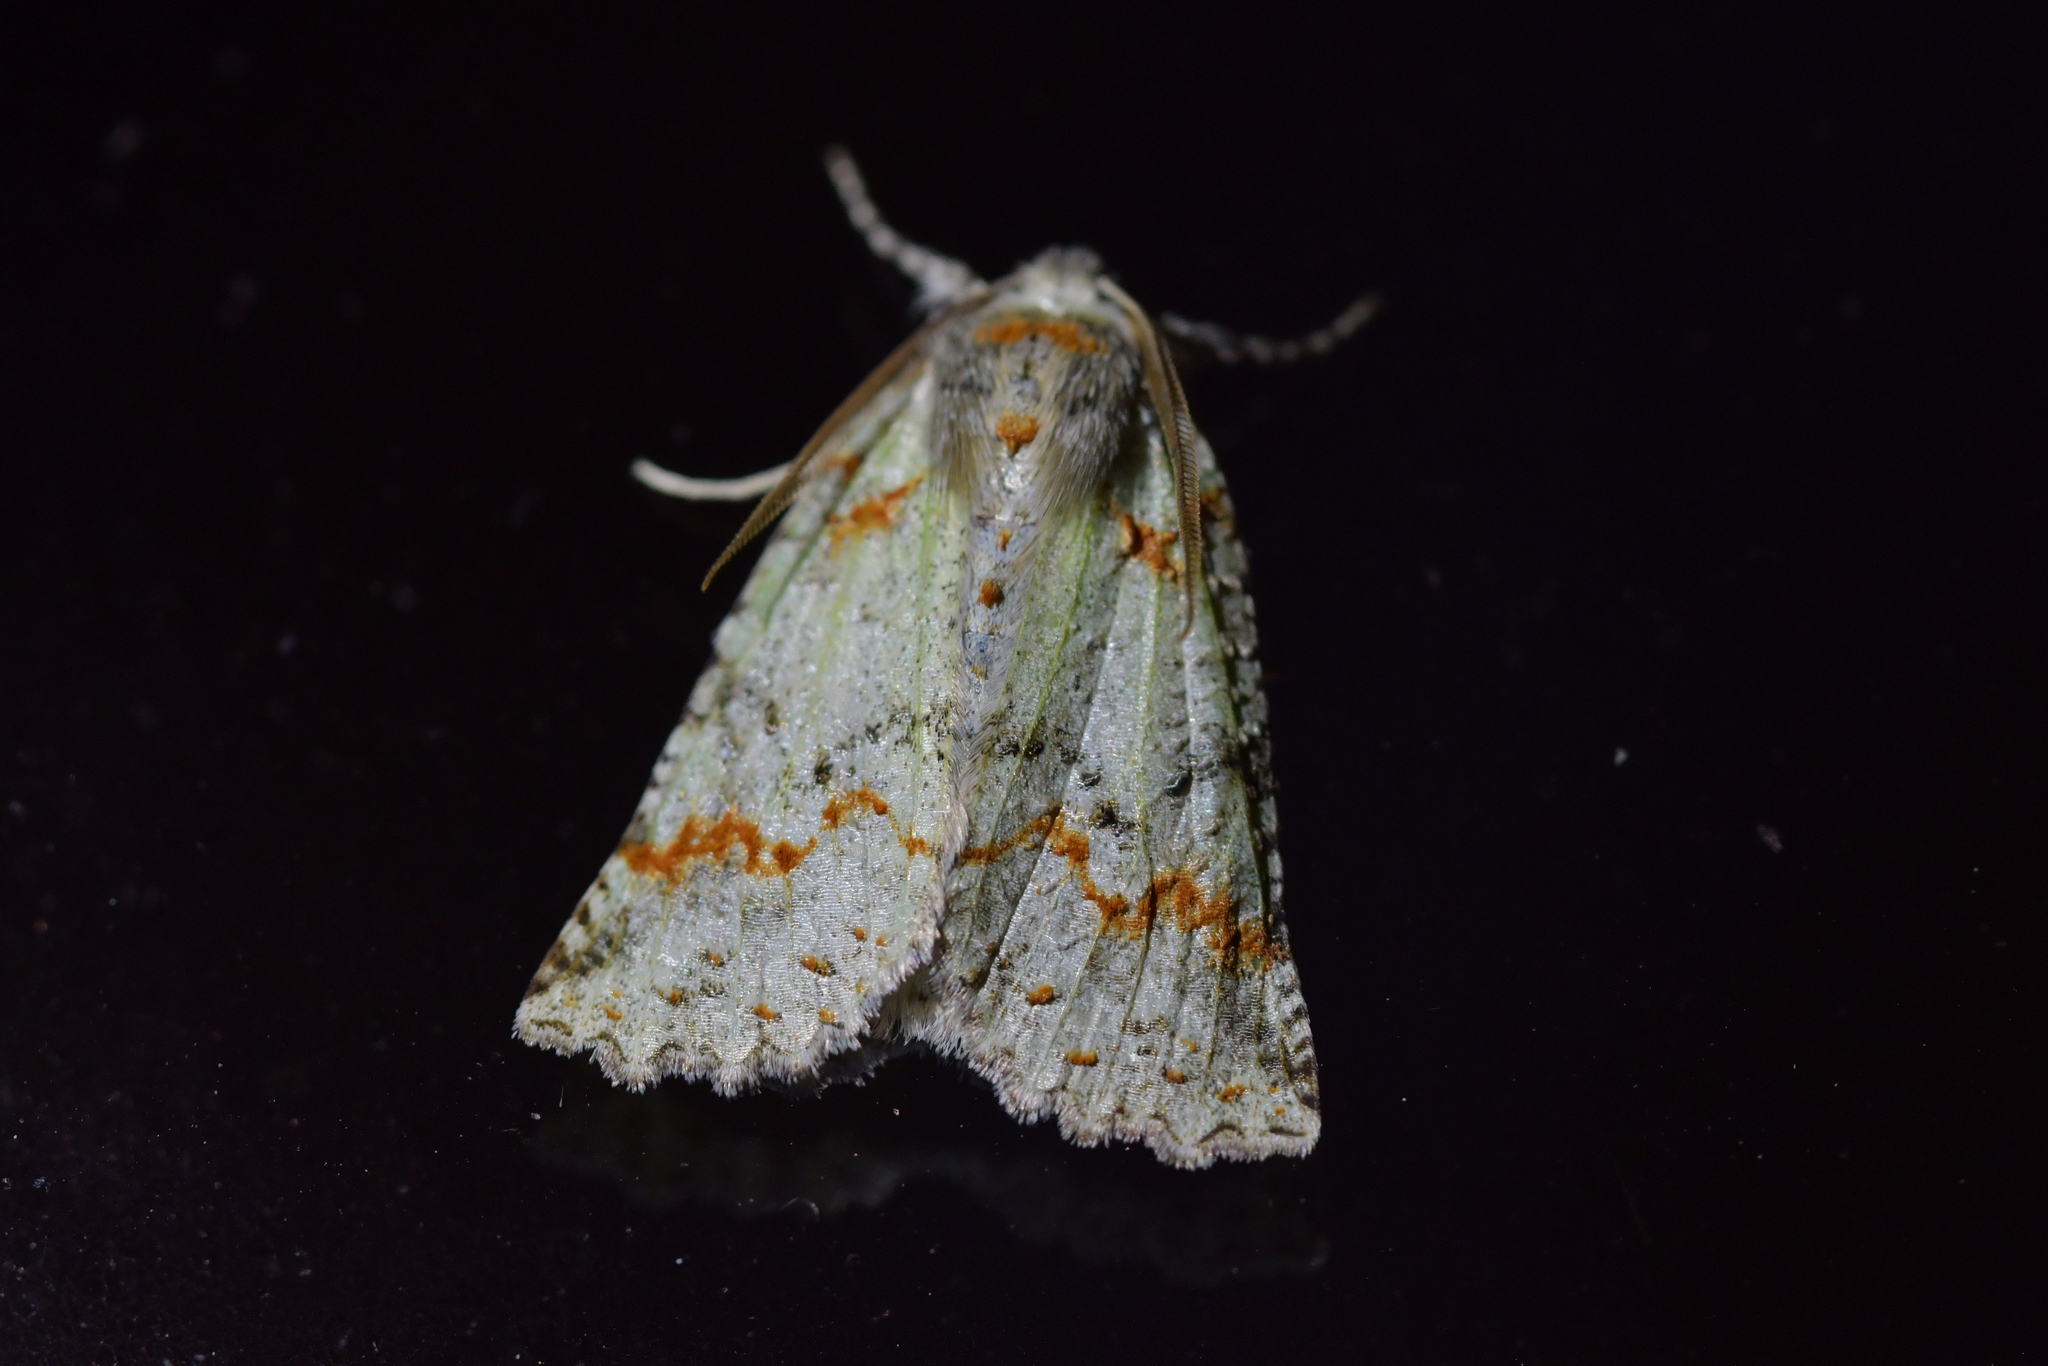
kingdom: Animalia
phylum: Arthropoda
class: Insecta
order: Lepidoptera
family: Geometridae
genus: Declana
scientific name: Declana floccosa
